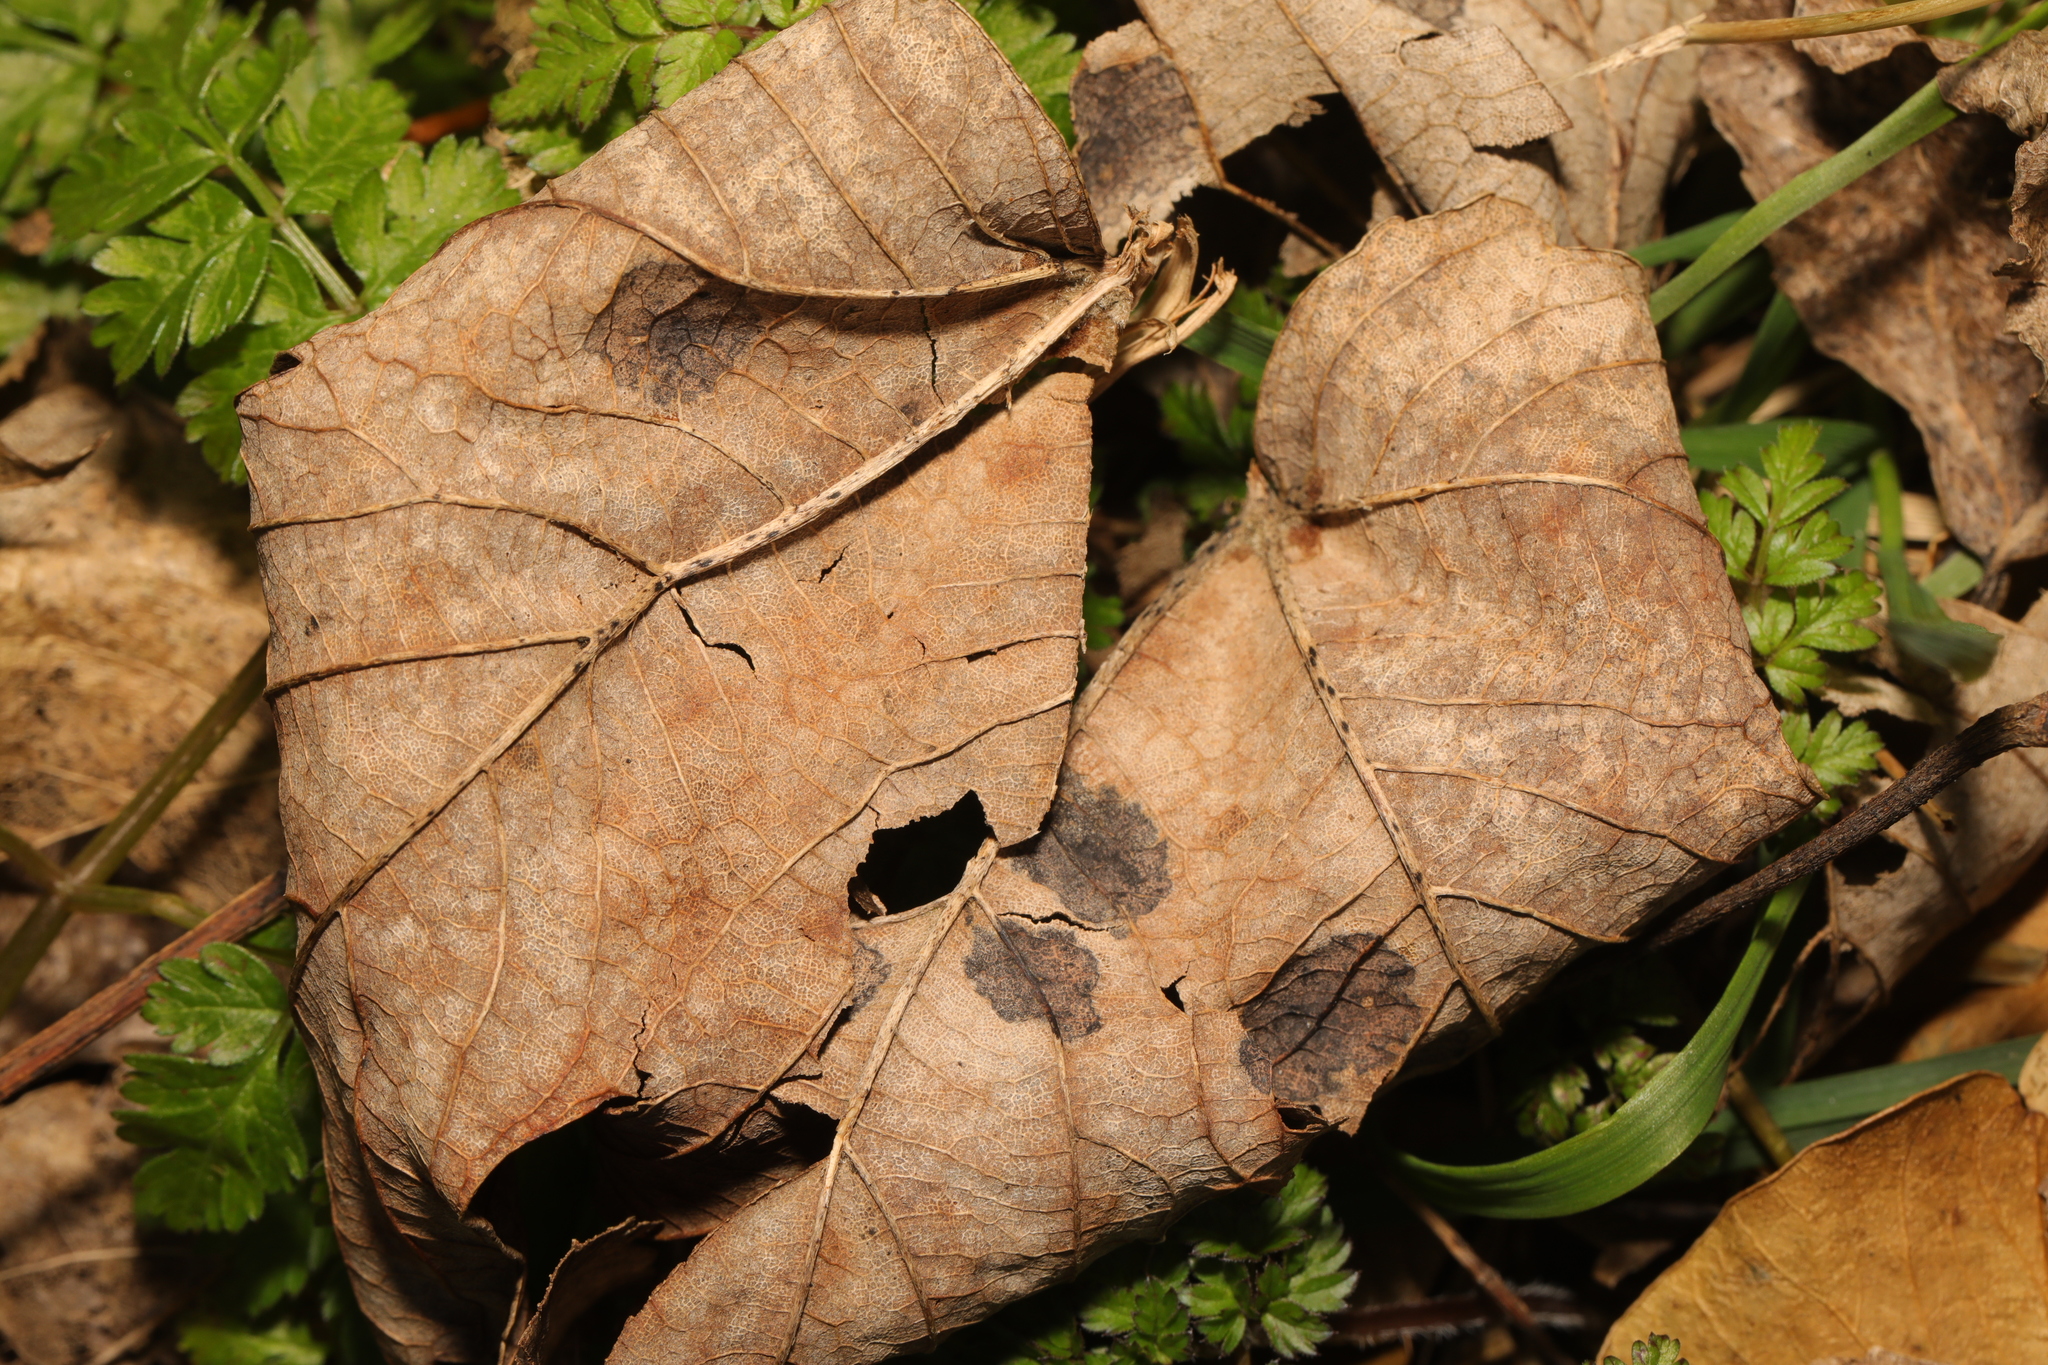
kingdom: Fungi
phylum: Ascomycota
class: Leotiomycetes
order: Rhytismatales
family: Rhytismataceae
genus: Rhytisma
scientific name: Rhytisma acerinum
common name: European tar spot
